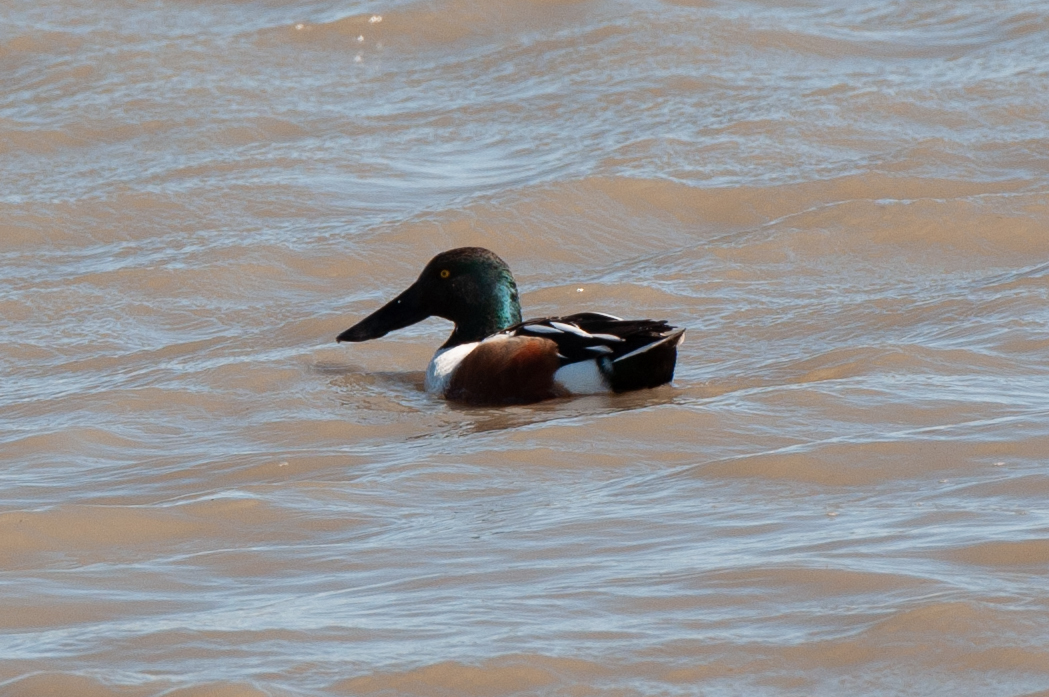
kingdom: Animalia
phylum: Chordata
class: Aves
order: Anseriformes
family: Anatidae
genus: Spatula
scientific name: Spatula clypeata
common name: Northern shoveler
